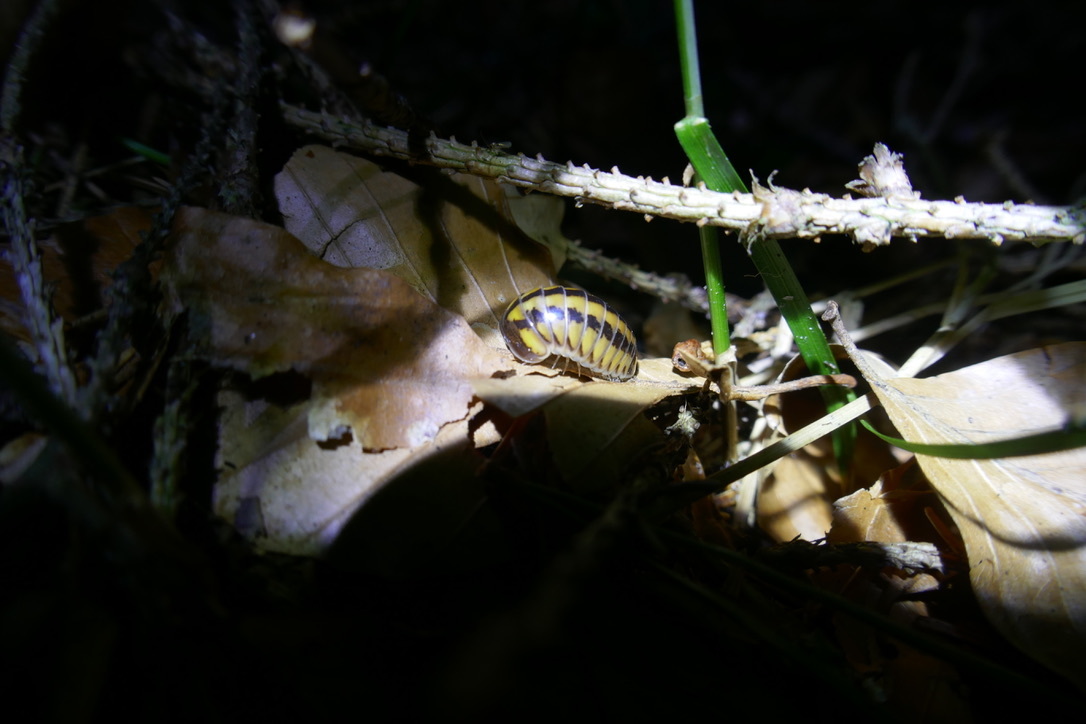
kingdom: Animalia
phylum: Arthropoda
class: Diplopoda
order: Glomerida
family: Glomeridae
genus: Glomeris
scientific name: Glomeris connexa
